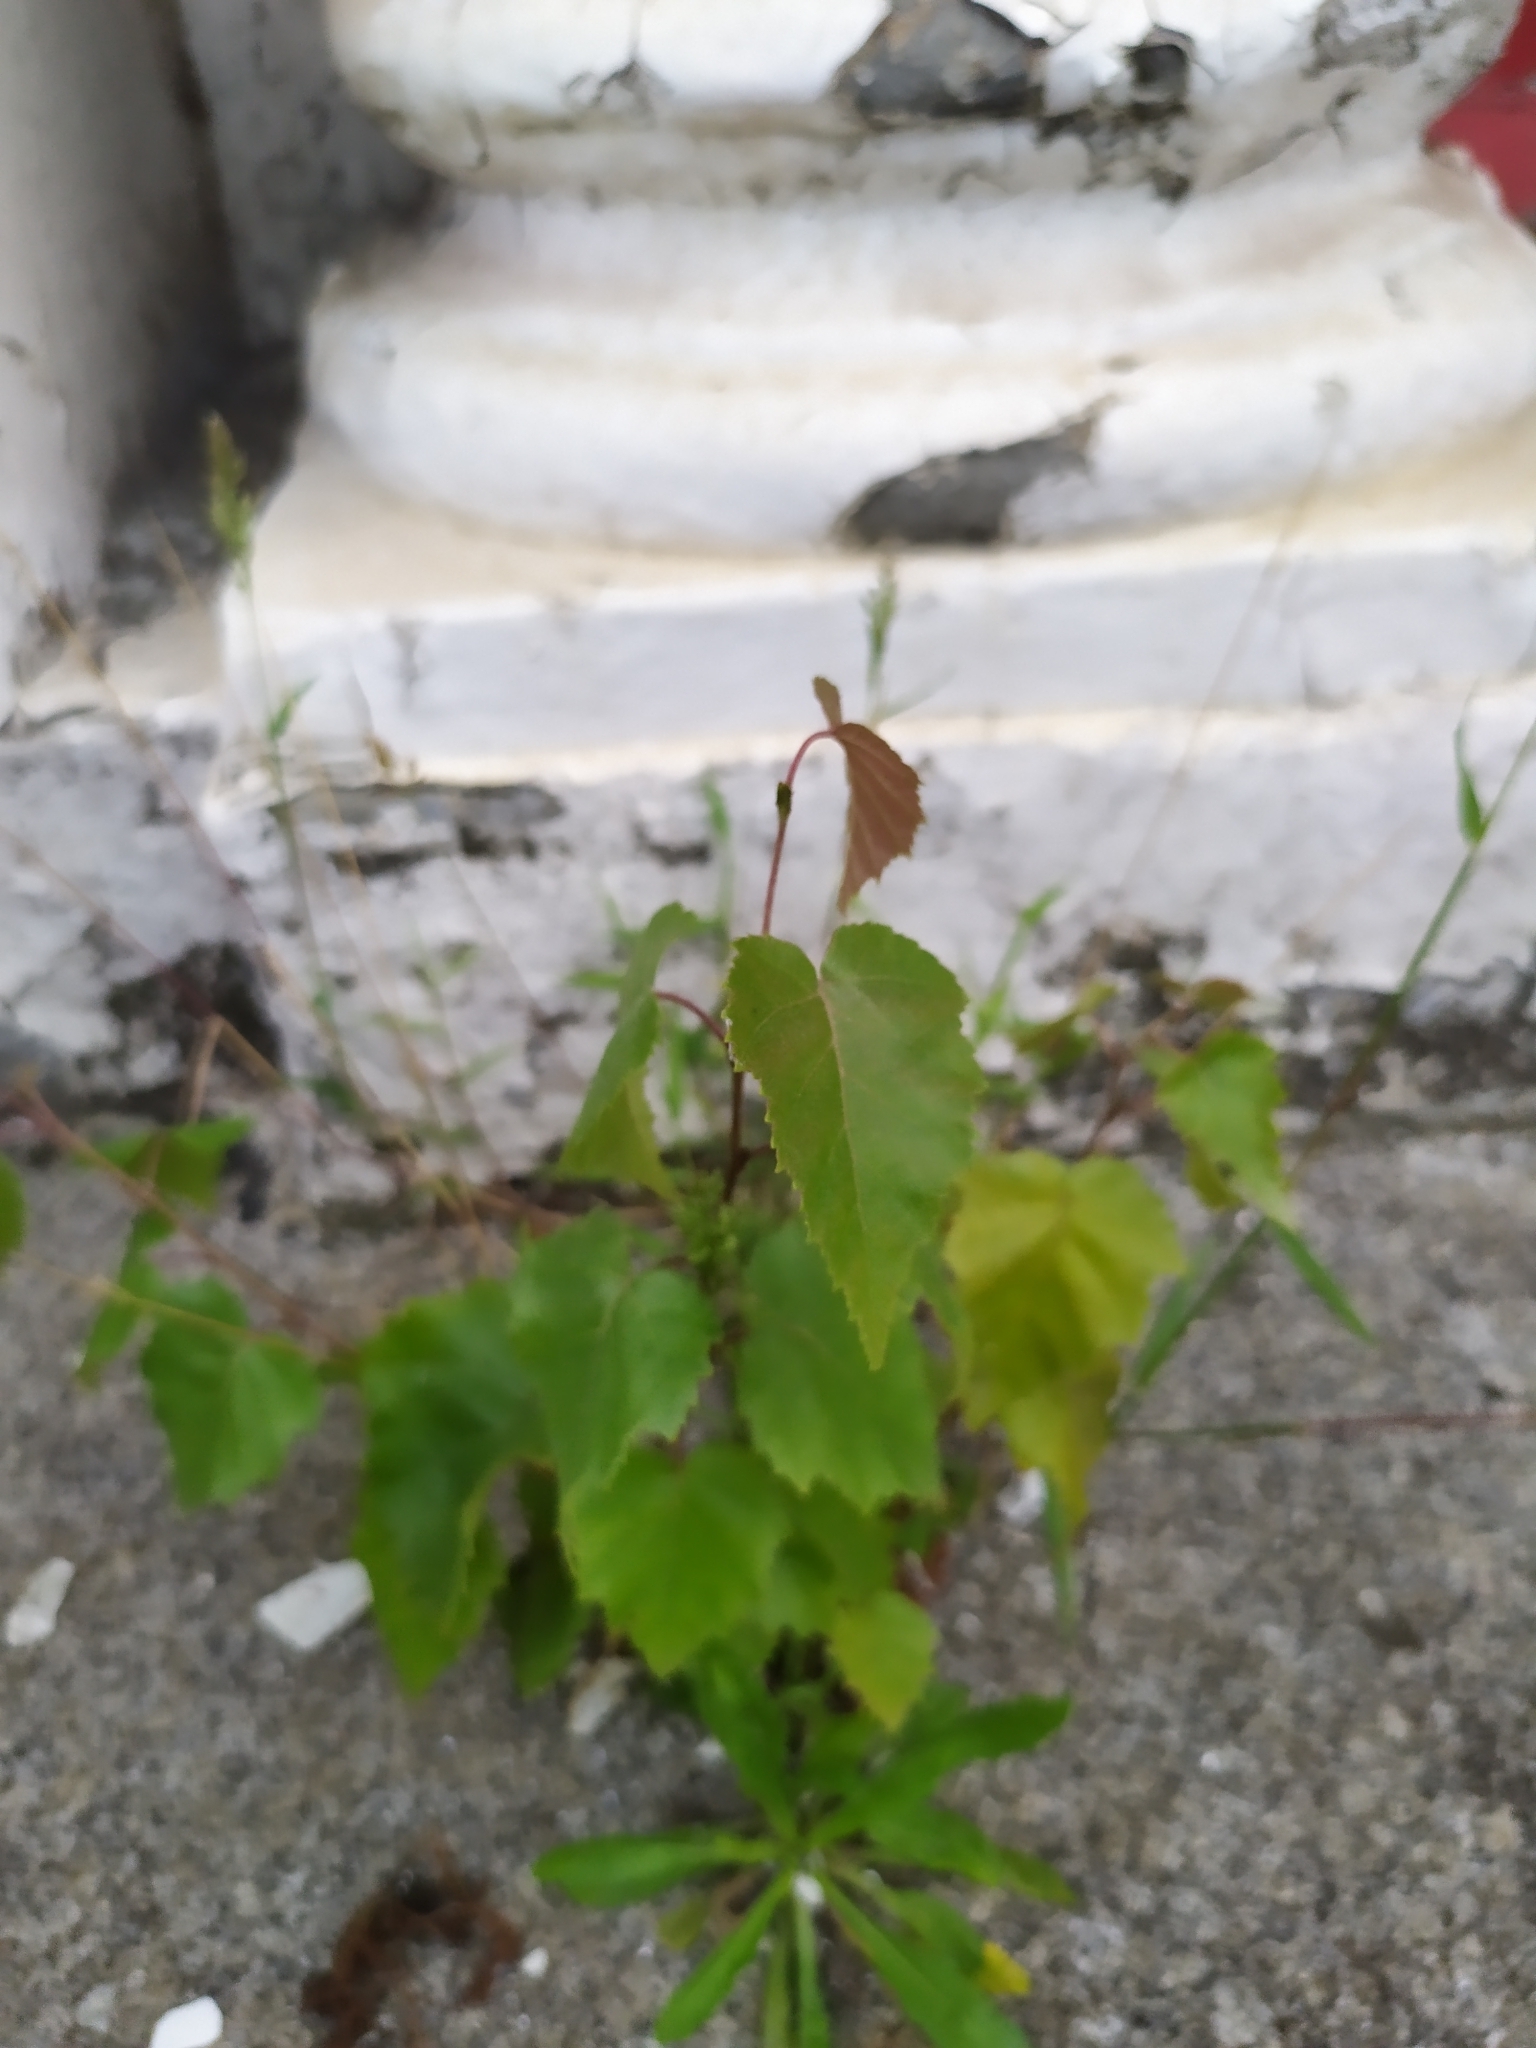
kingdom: Plantae
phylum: Tracheophyta
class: Magnoliopsida
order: Fagales
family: Betulaceae
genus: Betula
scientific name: Betula pendula
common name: Silver birch
